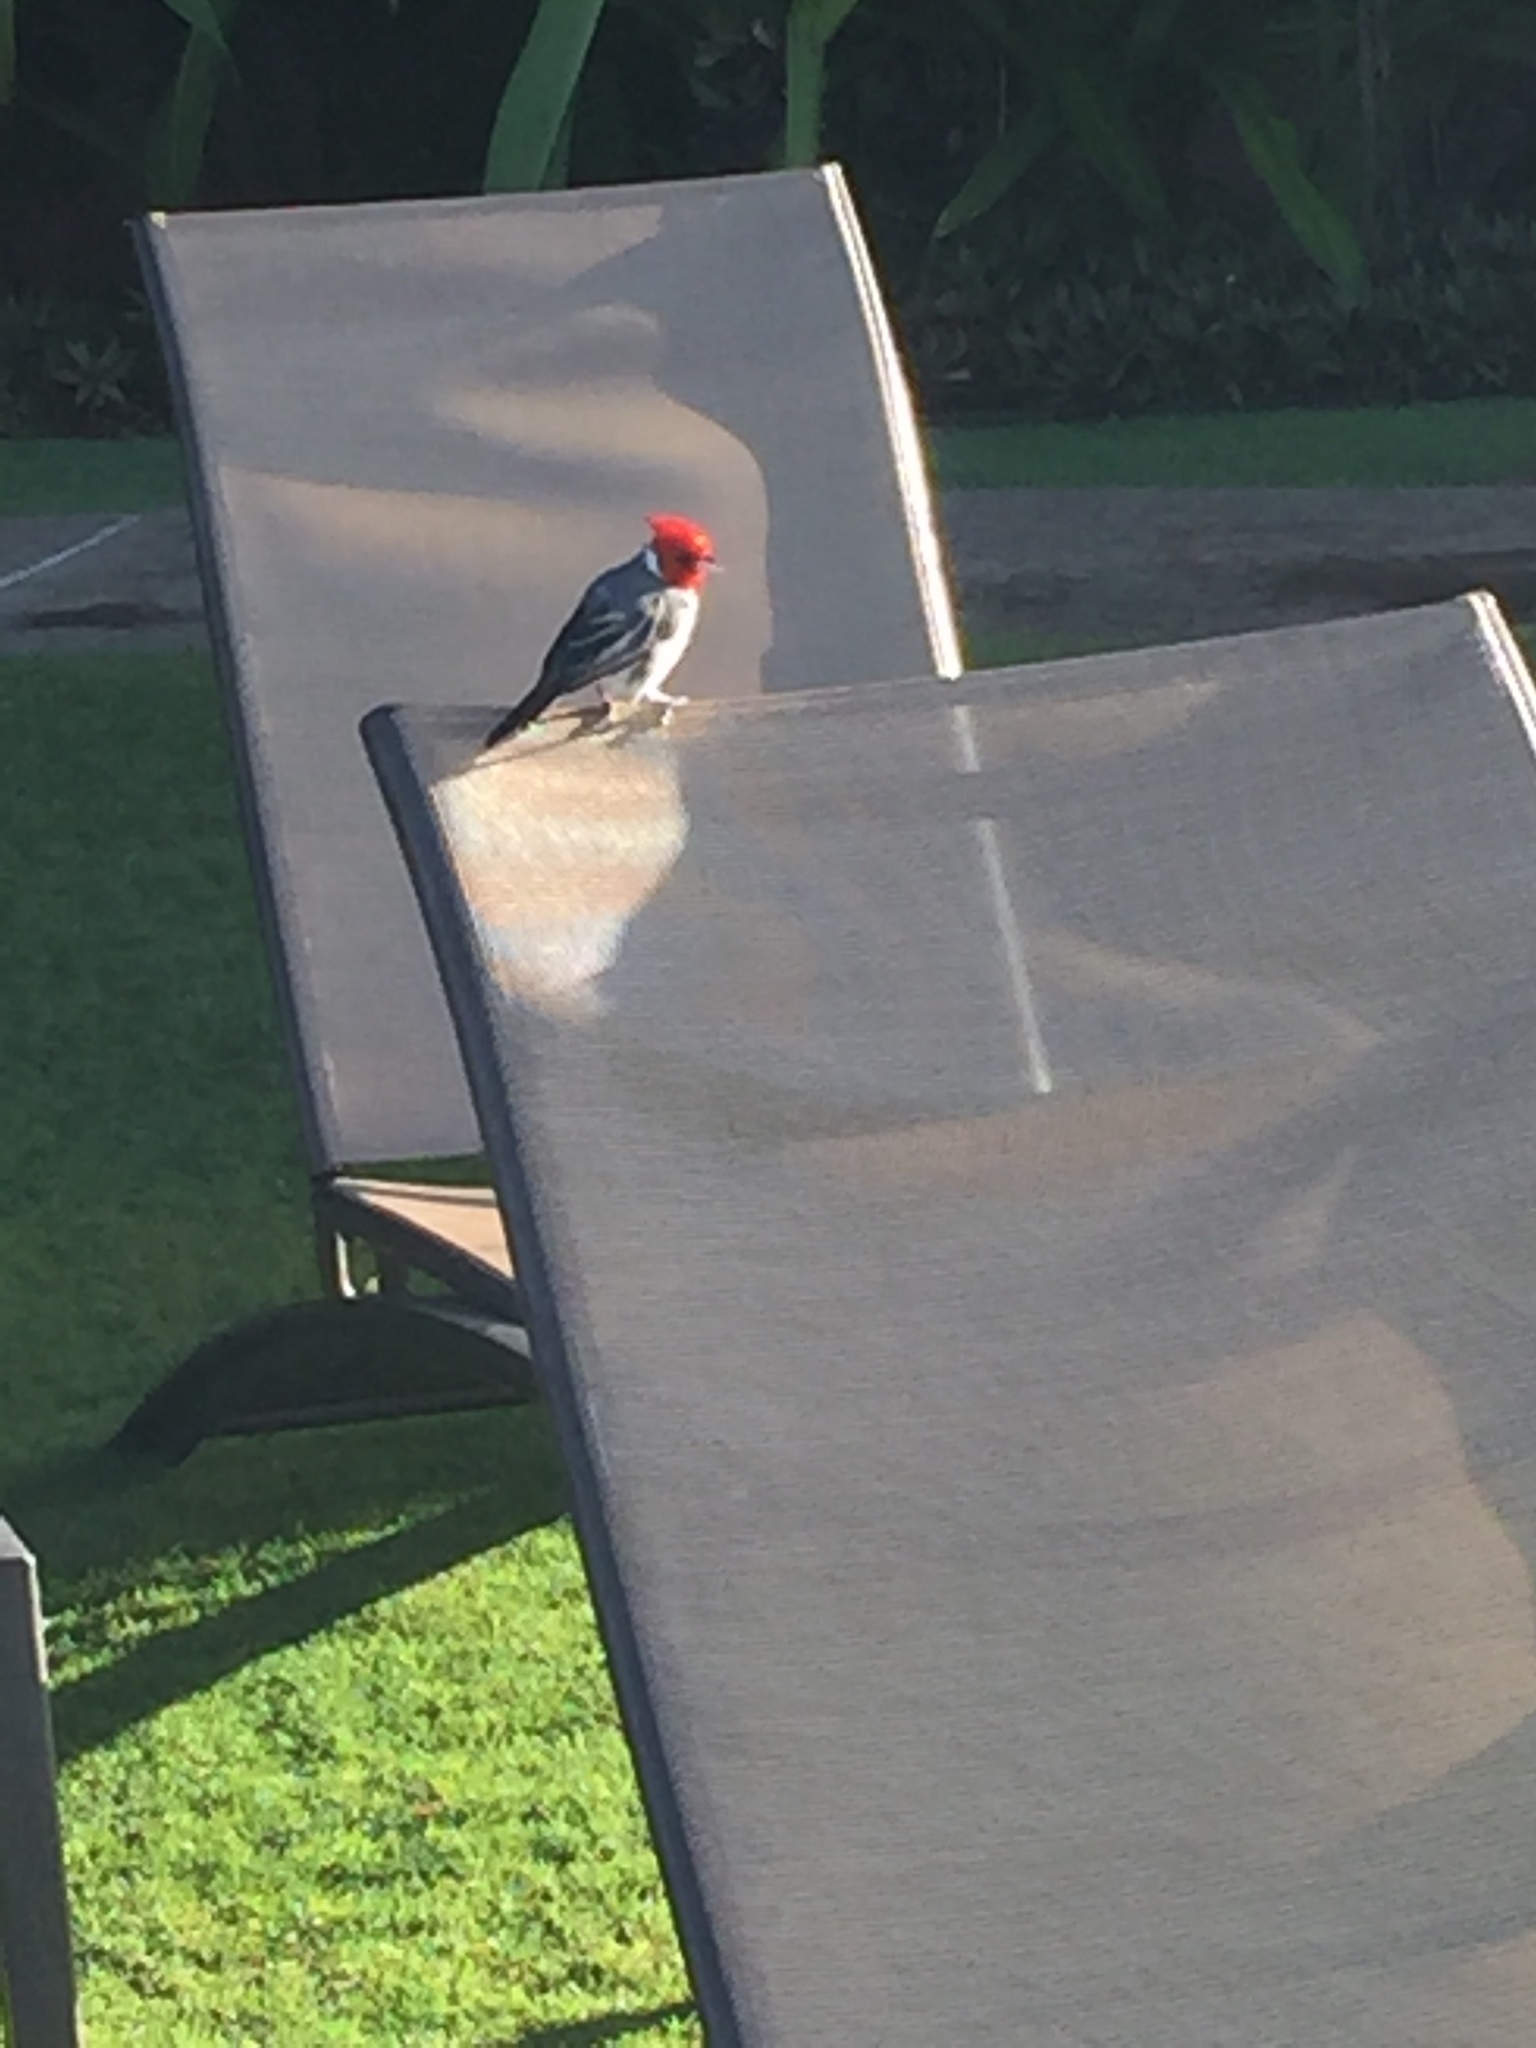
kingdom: Animalia
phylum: Chordata
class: Aves
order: Passeriformes
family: Thraupidae
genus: Paroaria
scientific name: Paroaria coronata
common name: Red-crested cardinal
